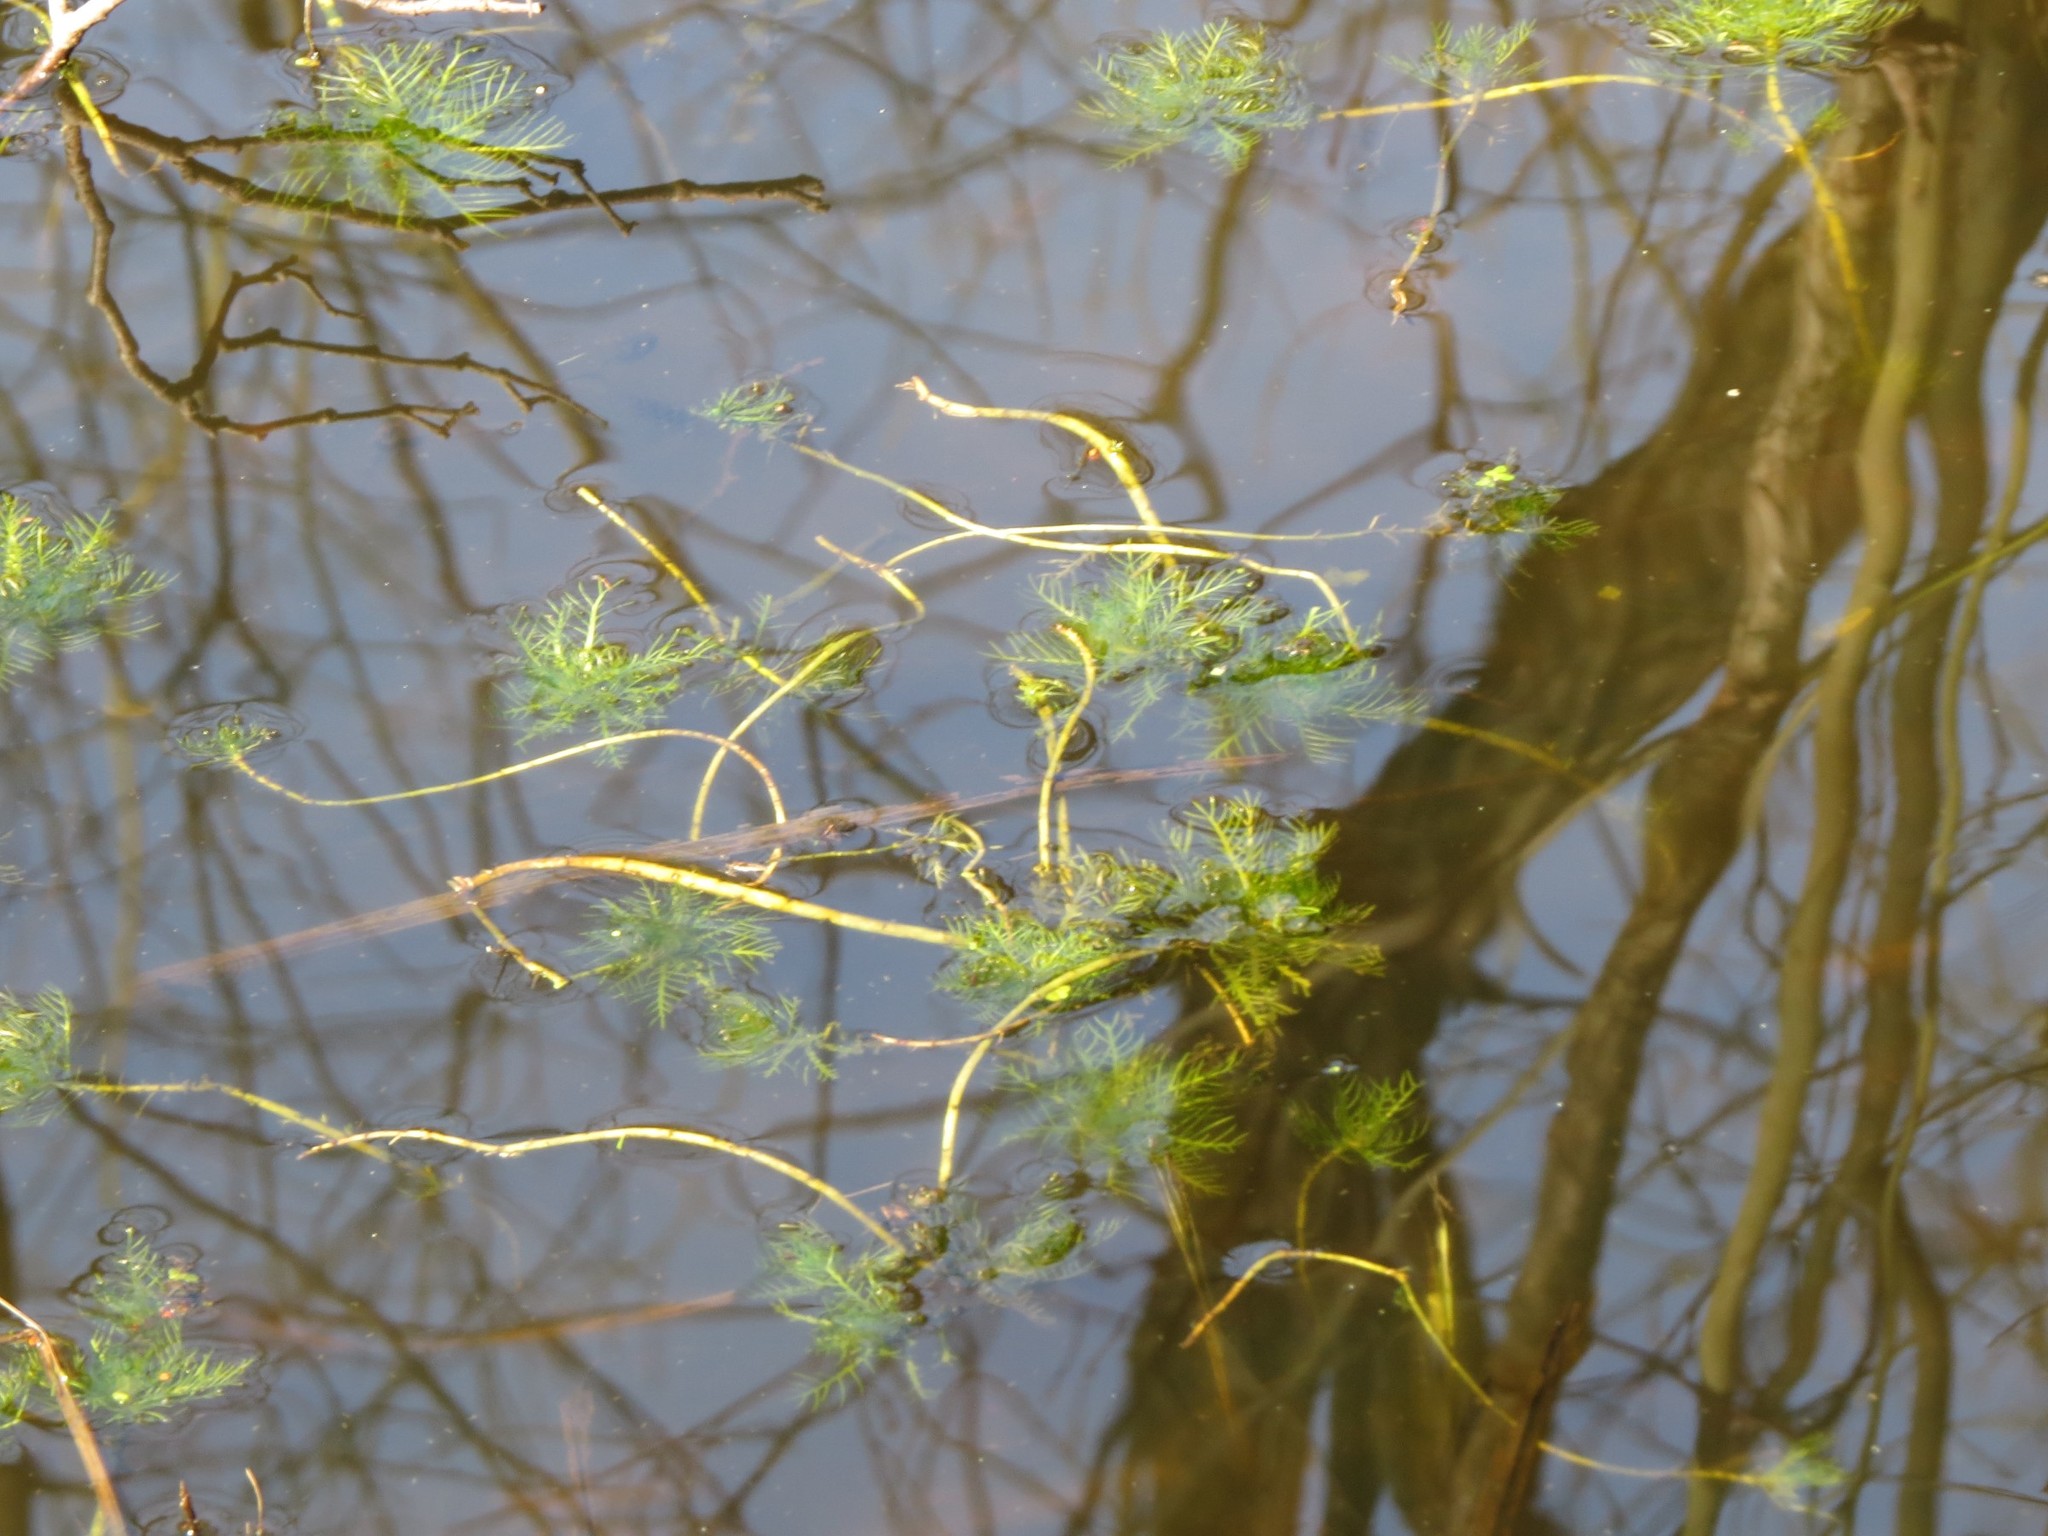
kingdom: Plantae
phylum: Tracheophyta
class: Magnoliopsida
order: Ericales
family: Primulaceae
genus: Hottonia
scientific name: Hottonia palustris
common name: Water-violet
